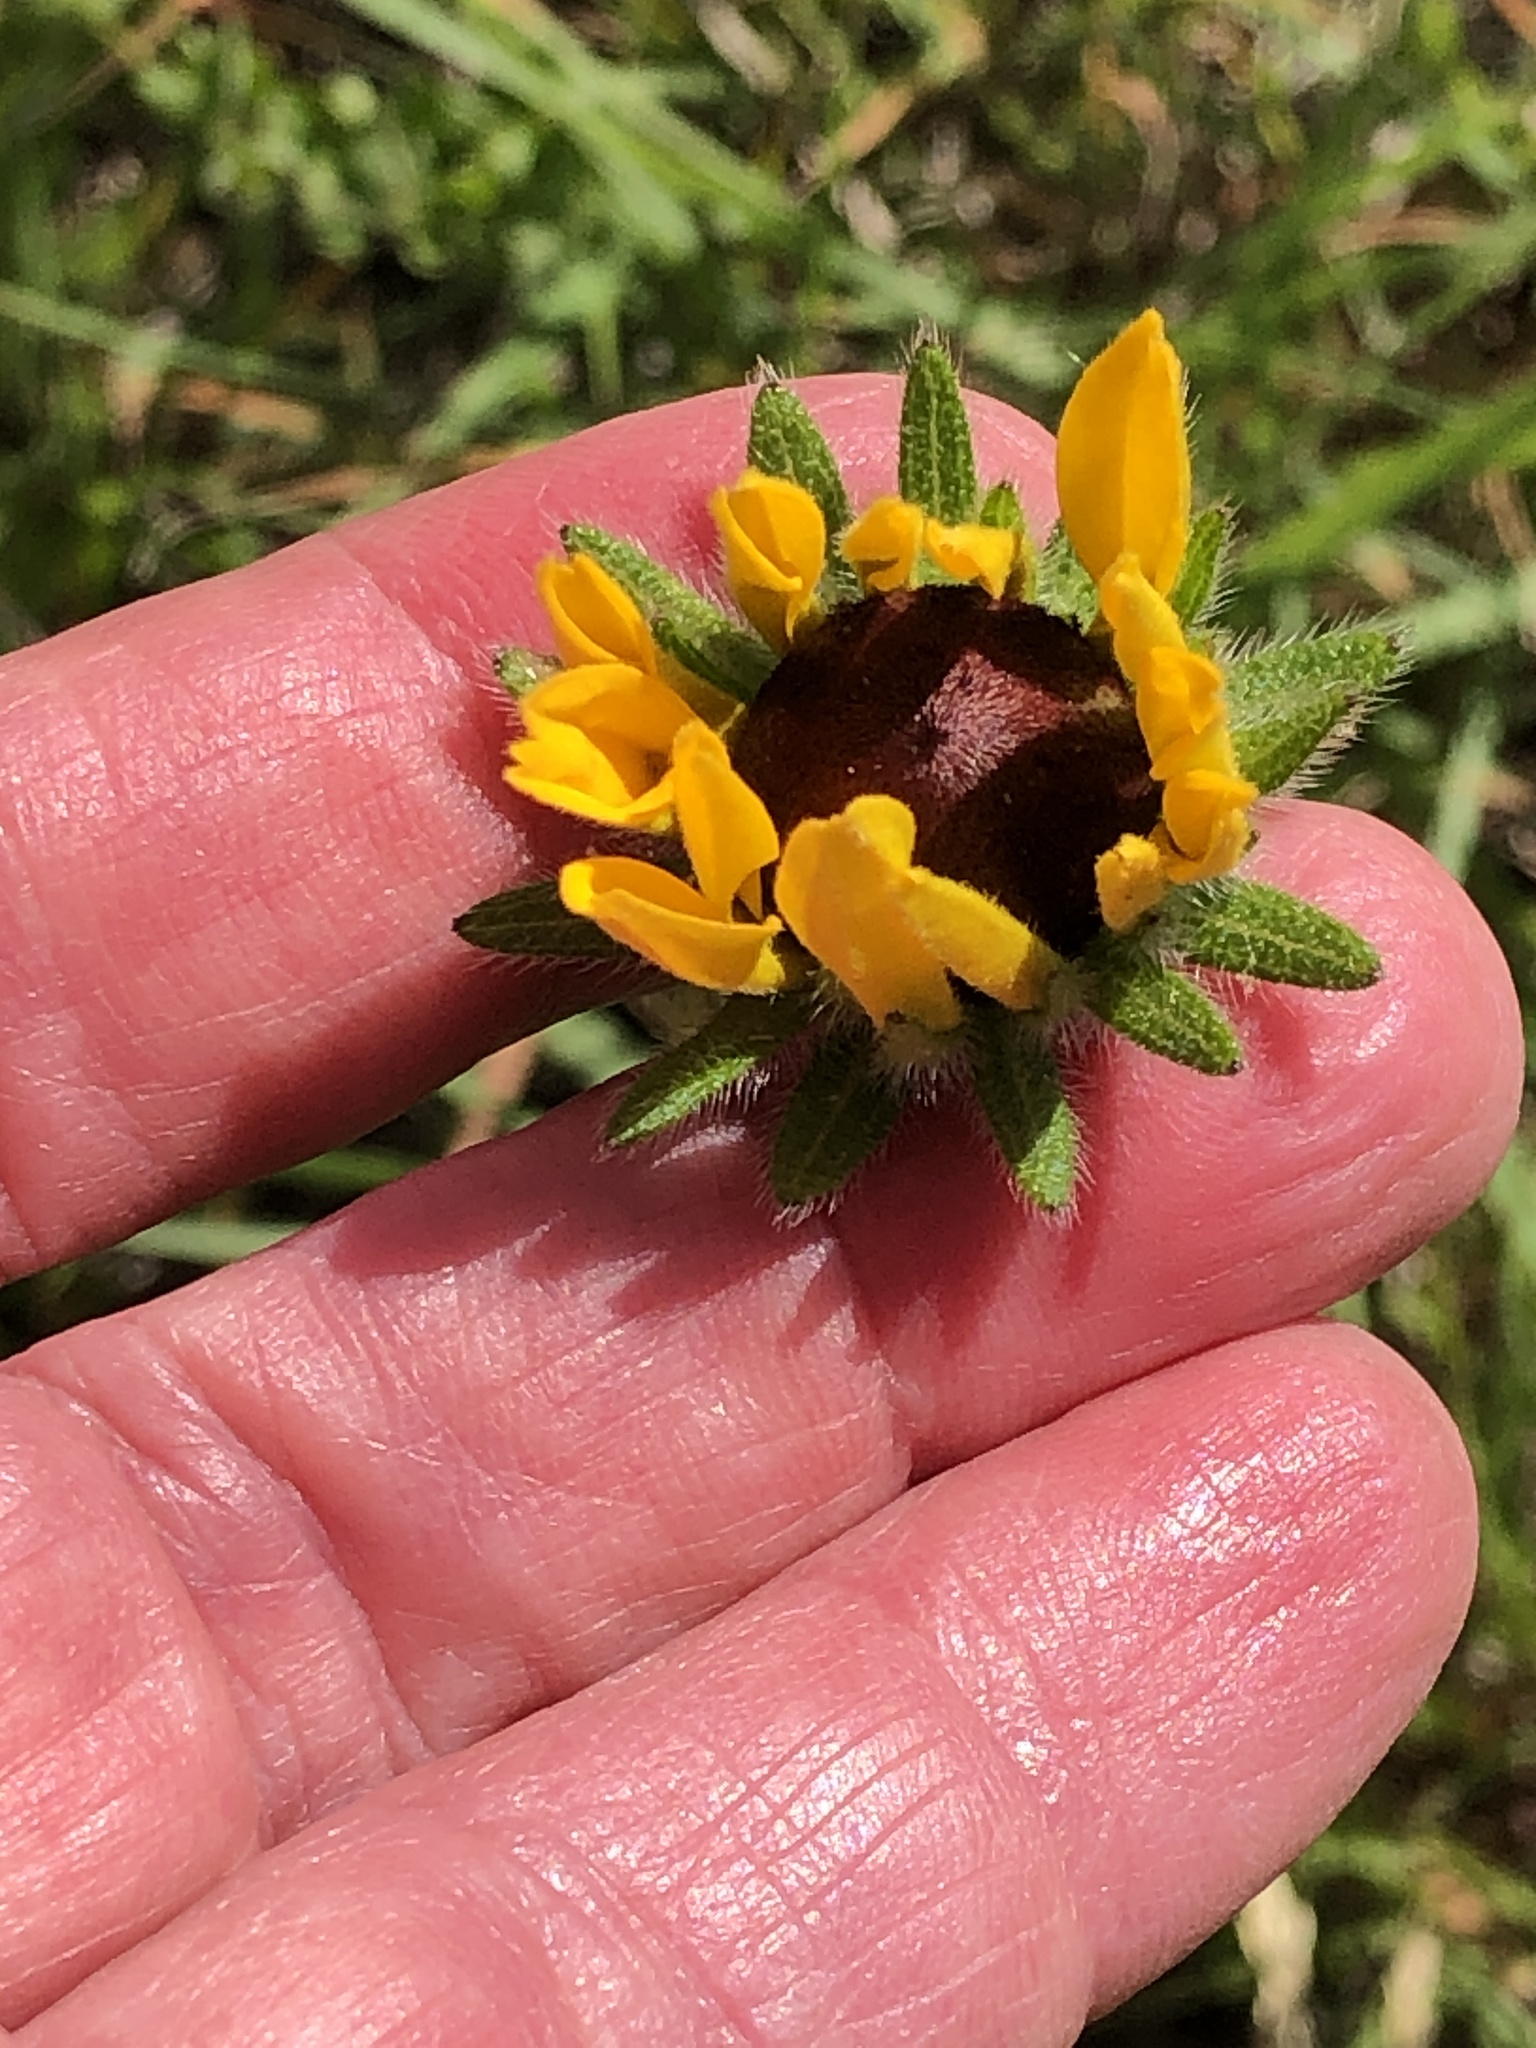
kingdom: Plantae
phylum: Tracheophyta
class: Magnoliopsida
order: Asterales
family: Asteraceae
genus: Rudbeckia
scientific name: Rudbeckia hirta
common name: Black-eyed-susan
